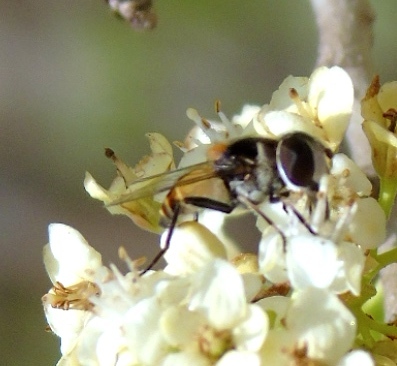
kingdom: Animalia
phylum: Arthropoda
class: Insecta
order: Diptera
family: Syrphidae
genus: Palpada
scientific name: Palpada
